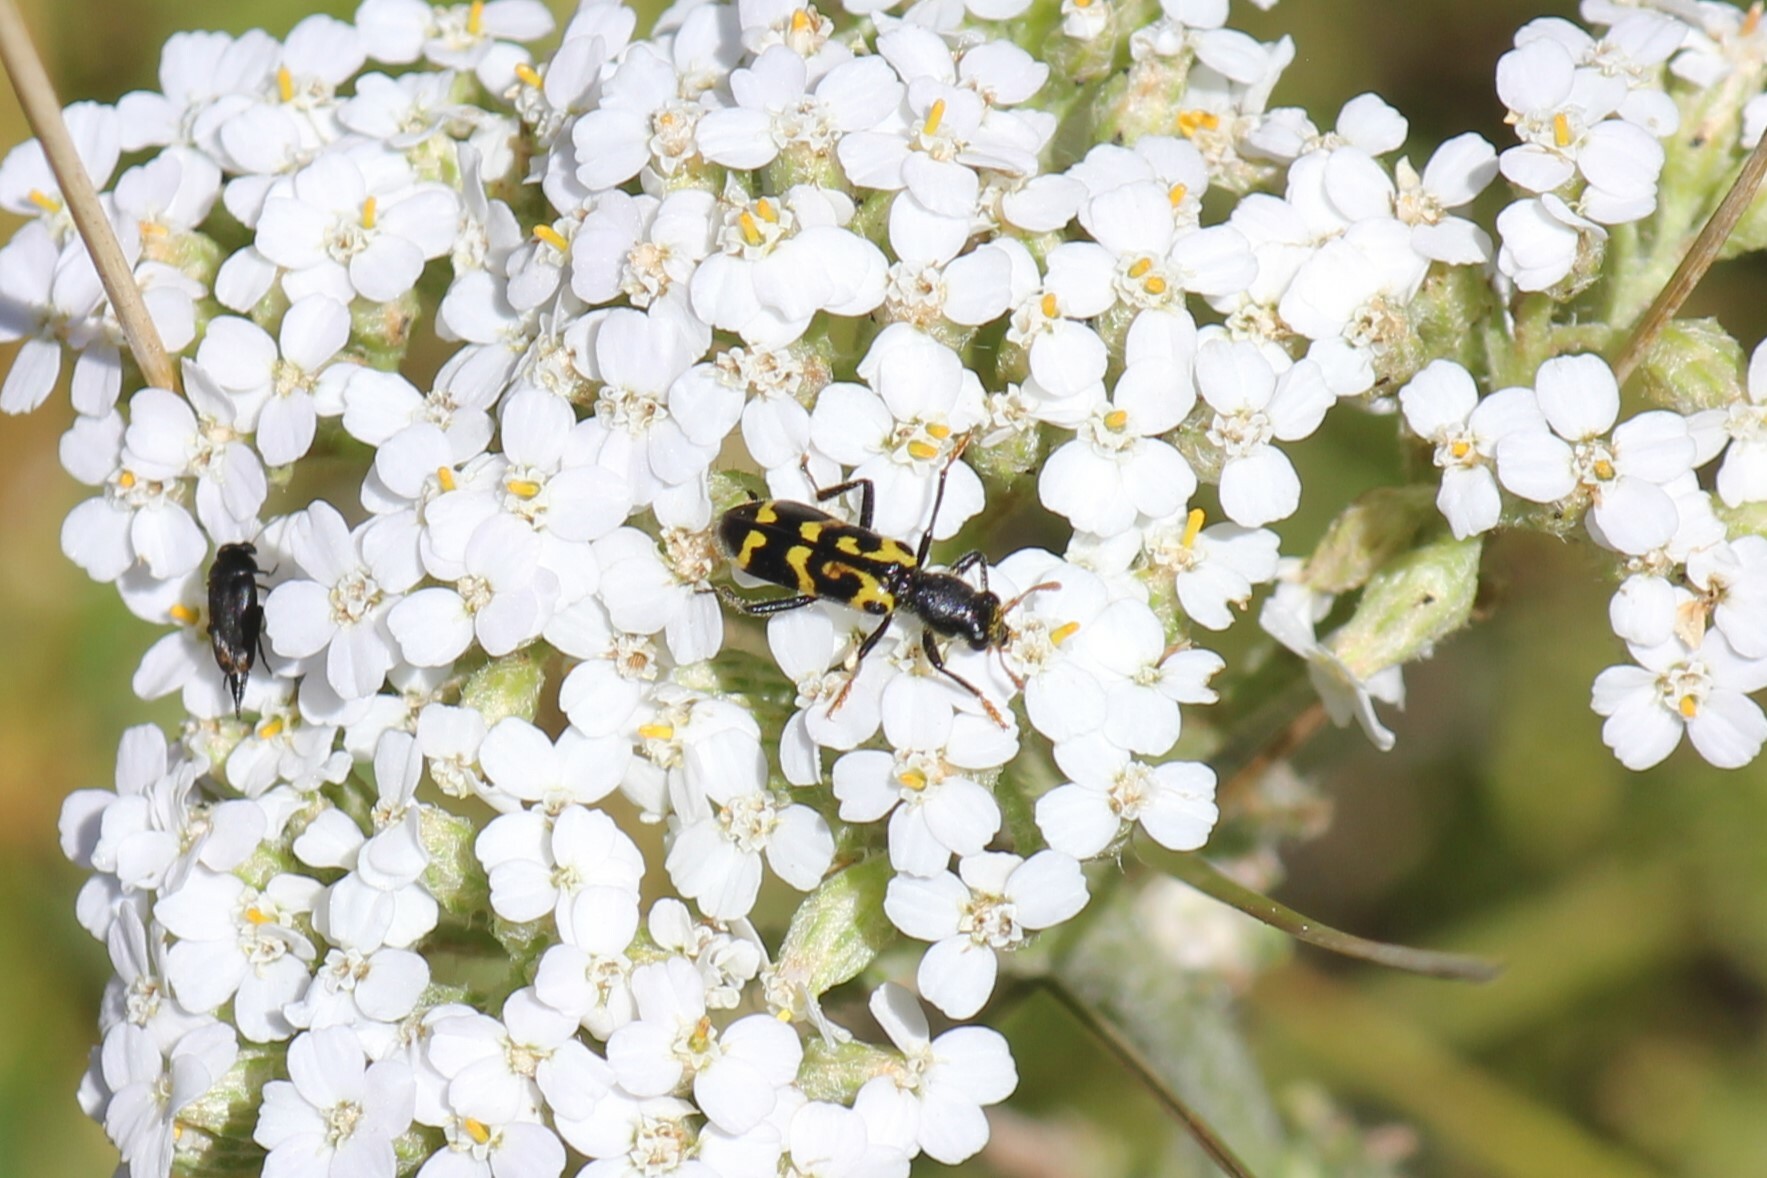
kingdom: Animalia
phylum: Arthropoda
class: Insecta
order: Coleoptera
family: Cleridae
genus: Trichodes
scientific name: Trichodes ornatus
